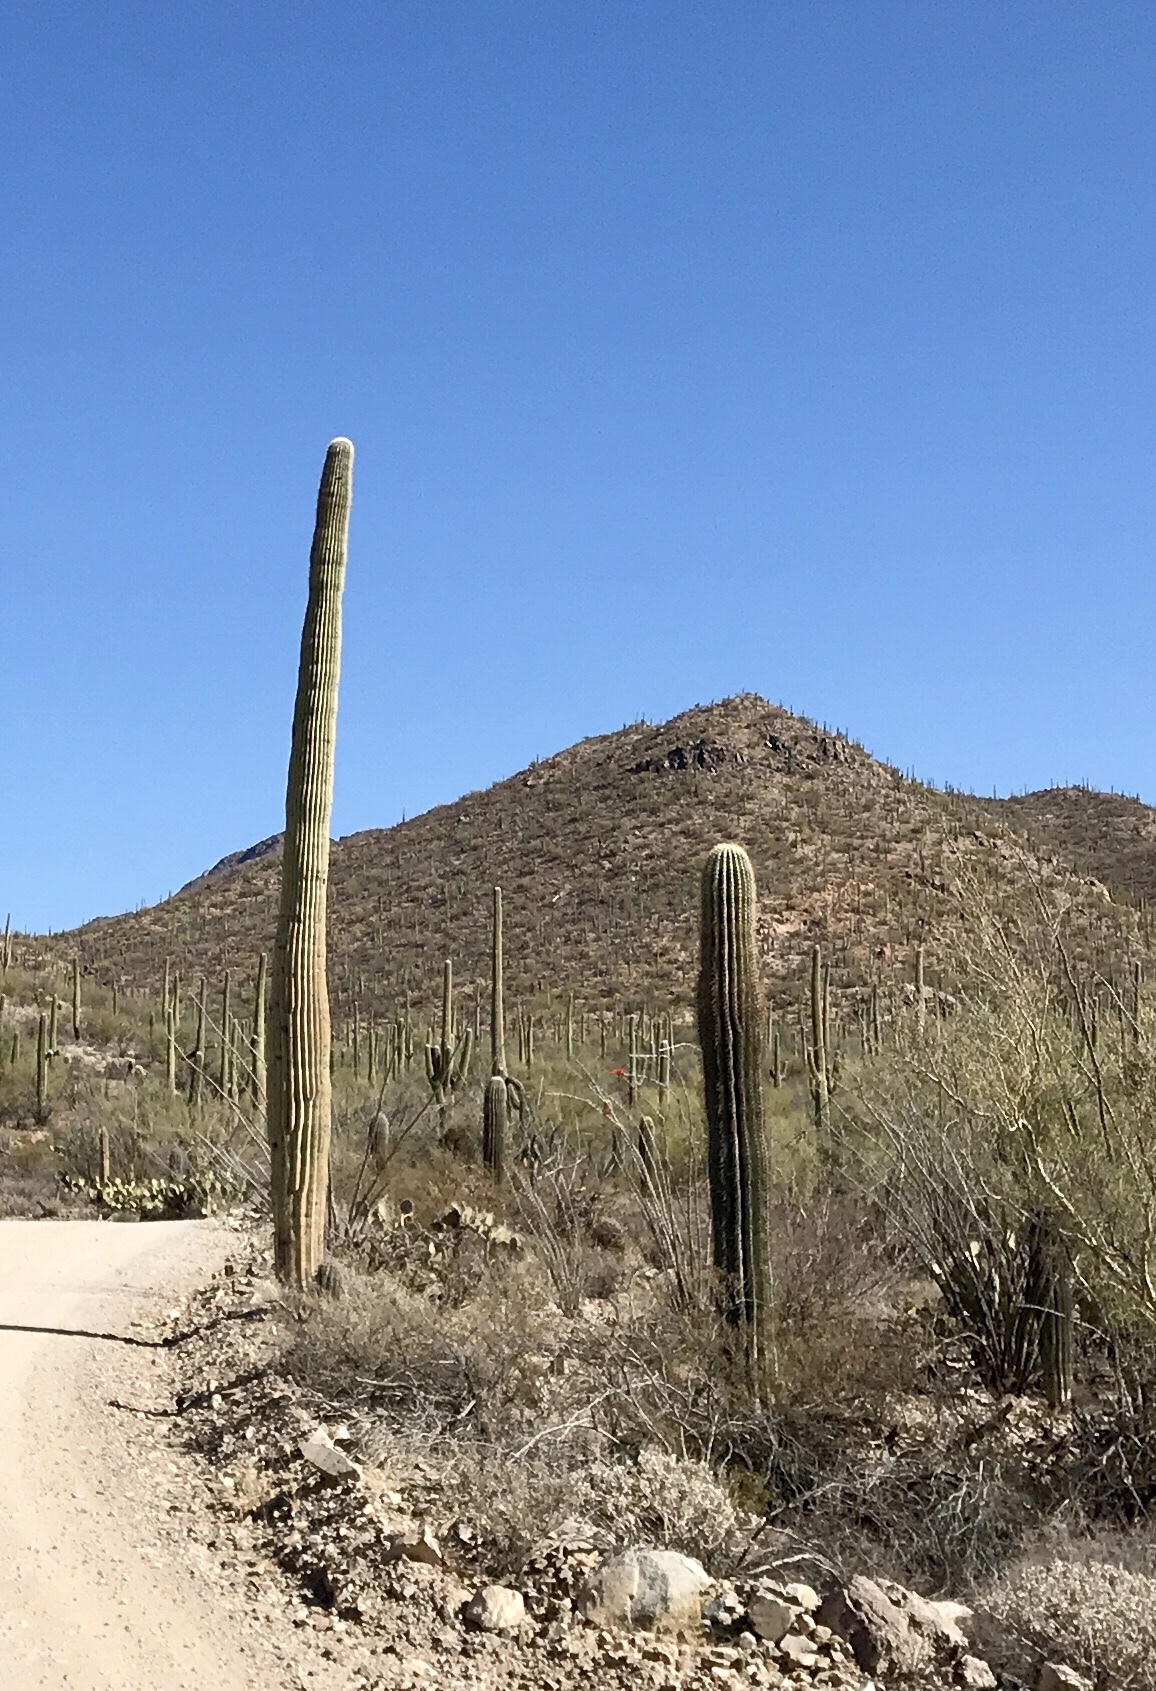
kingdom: Plantae
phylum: Tracheophyta
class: Magnoliopsida
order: Caryophyllales
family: Cactaceae
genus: Carnegiea
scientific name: Carnegiea gigantea
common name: Saguaro
